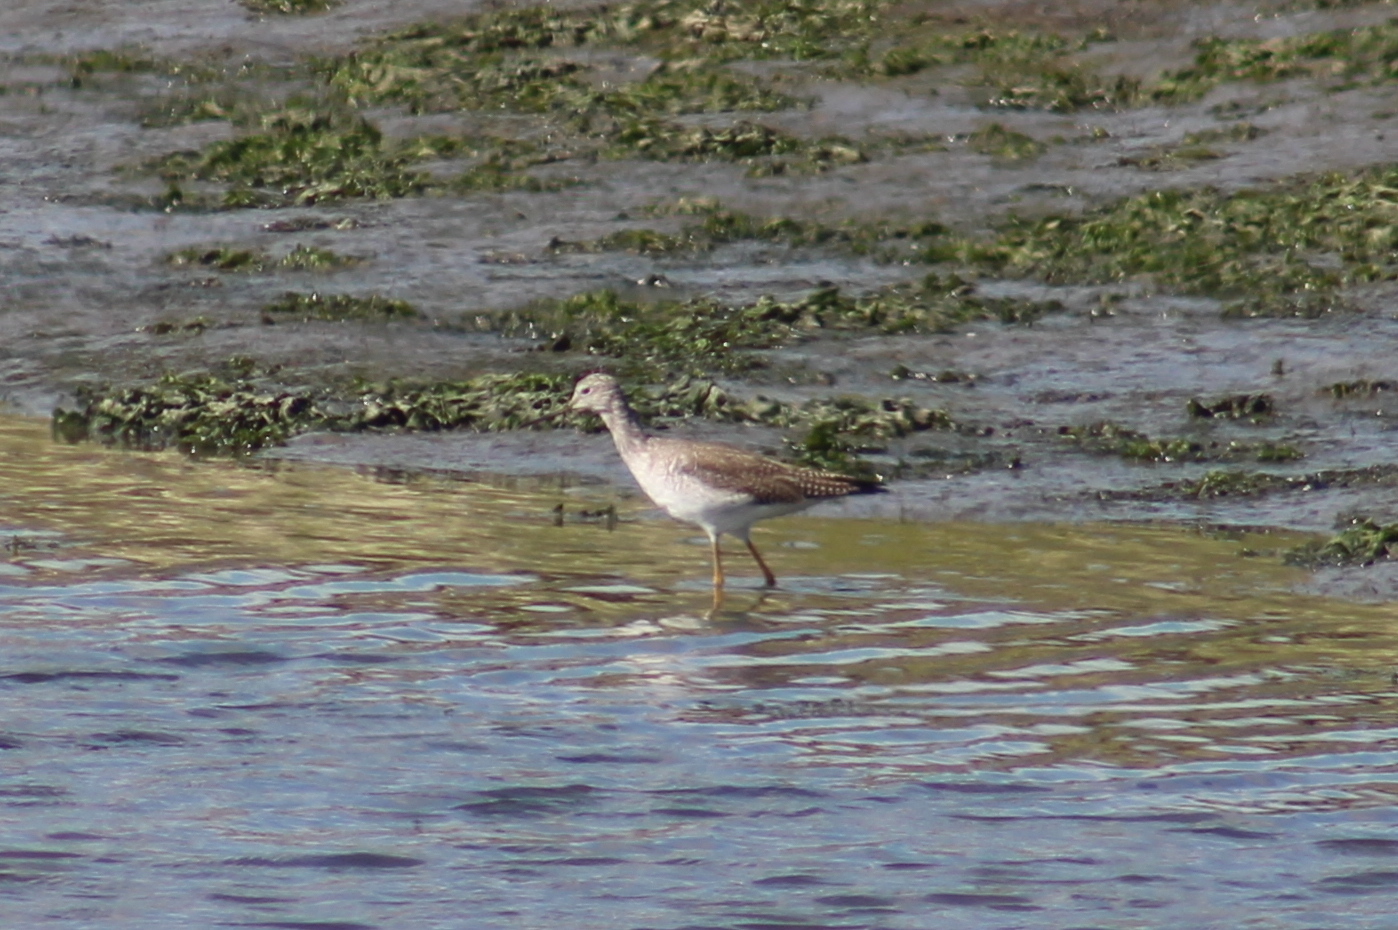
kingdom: Animalia
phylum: Chordata
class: Aves
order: Charadriiformes
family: Scolopacidae
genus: Tringa
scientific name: Tringa melanoleuca
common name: Greater yellowlegs
